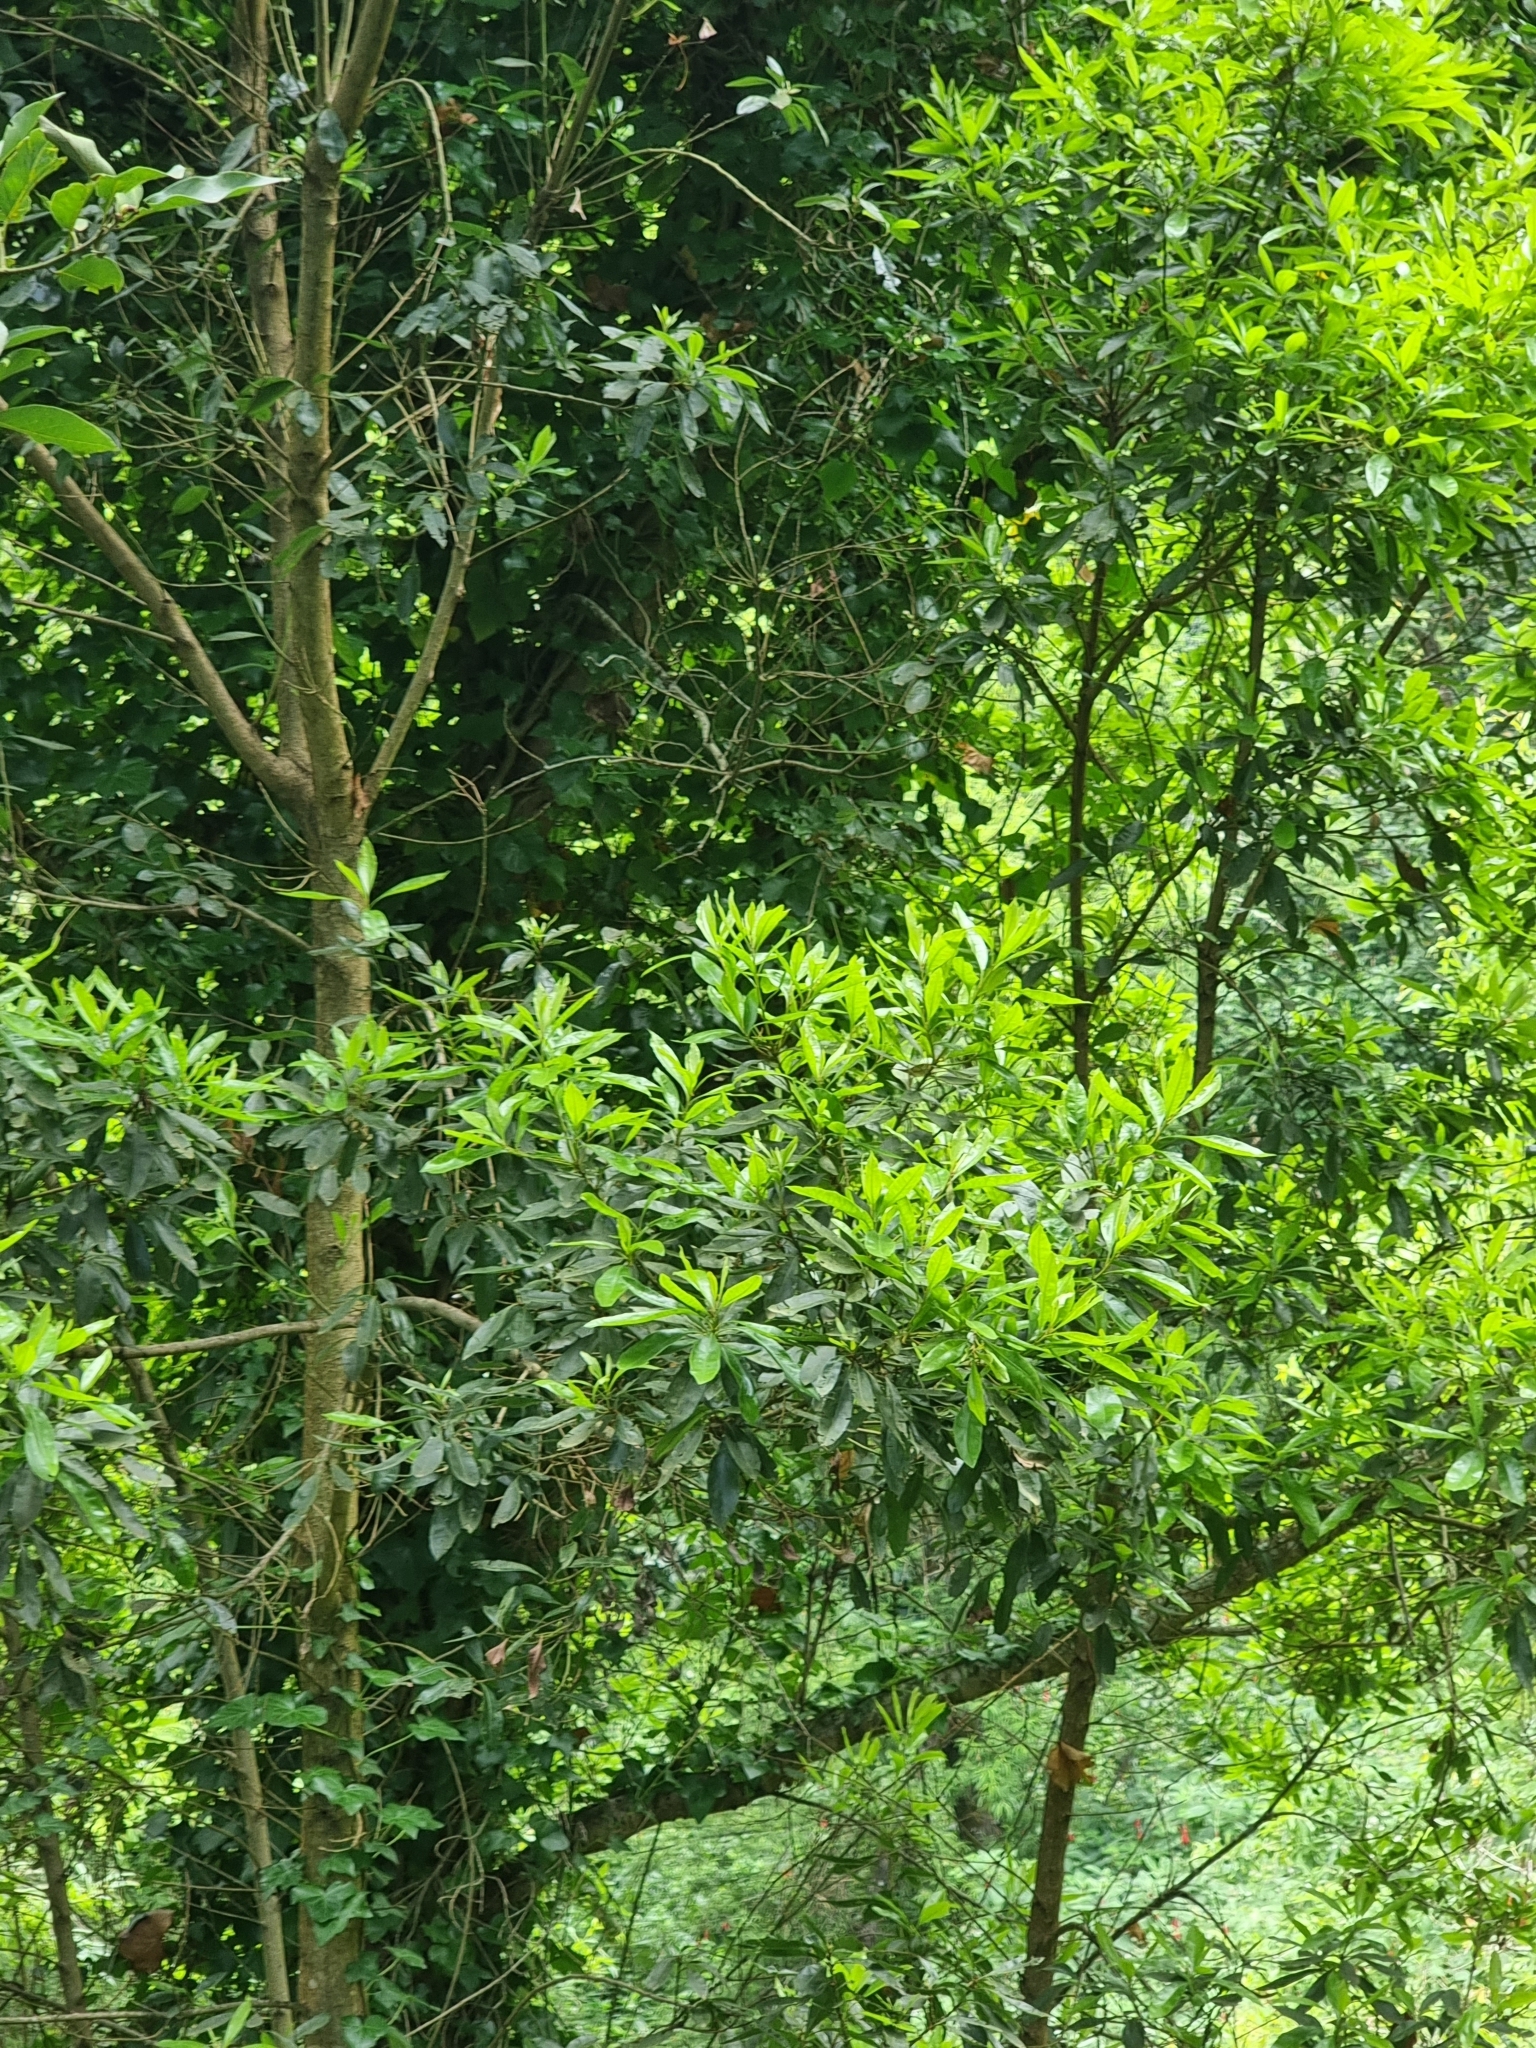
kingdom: Plantae
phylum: Tracheophyta
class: Magnoliopsida
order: Fagales
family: Myricaceae
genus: Morella
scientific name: Morella faya
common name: Firetree
